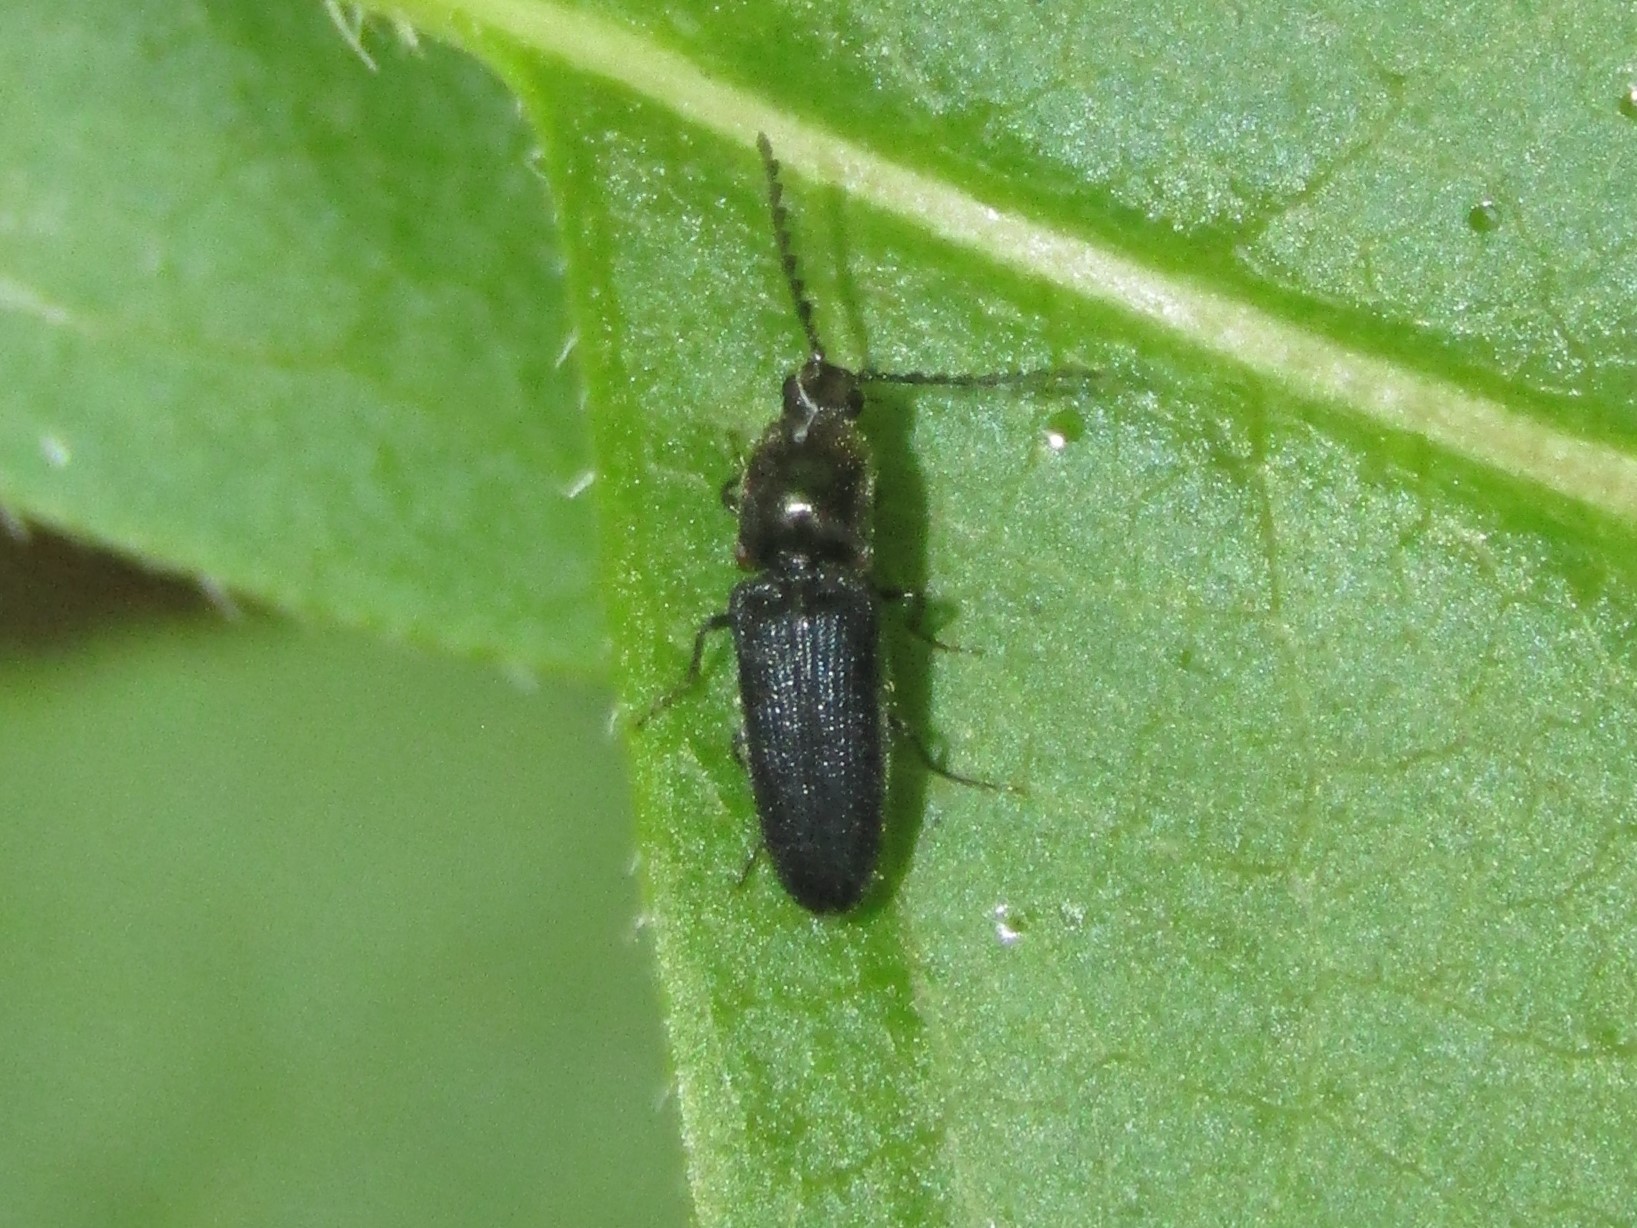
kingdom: Animalia
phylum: Arthropoda
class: Insecta
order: Coleoptera
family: Elateridae
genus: Limonius
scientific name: Limonius quercinus
